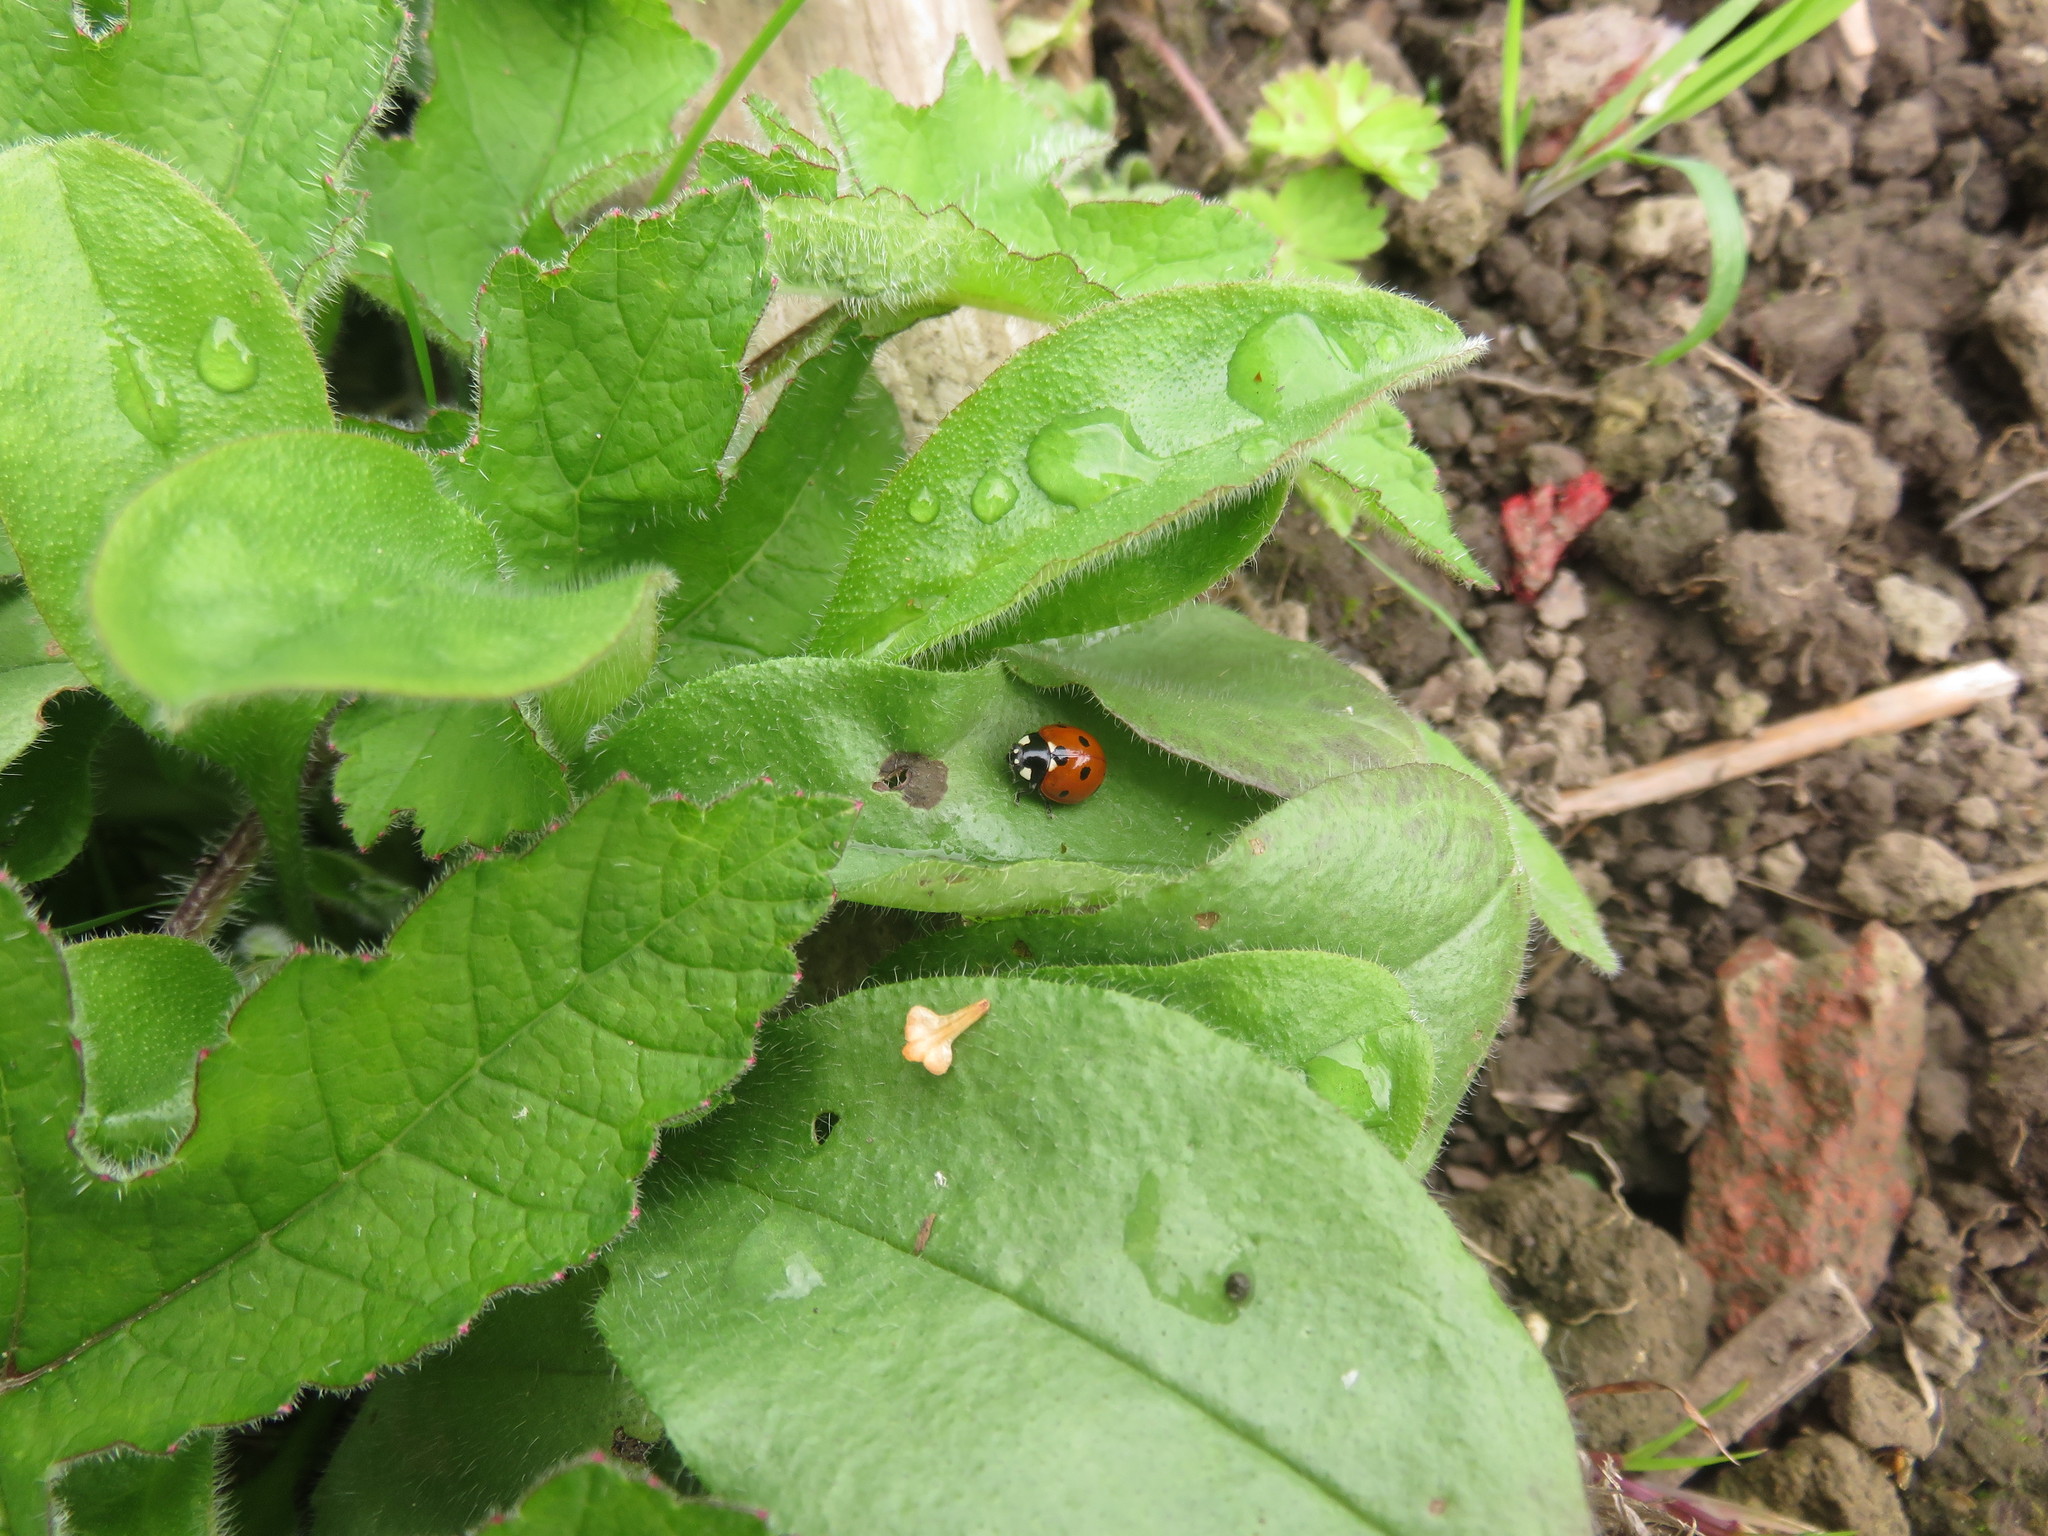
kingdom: Animalia
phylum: Arthropoda
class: Insecta
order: Coleoptera
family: Coccinellidae
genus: Coccinella
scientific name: Coccinella septempunctata
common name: Sevenspotted lady beetle
